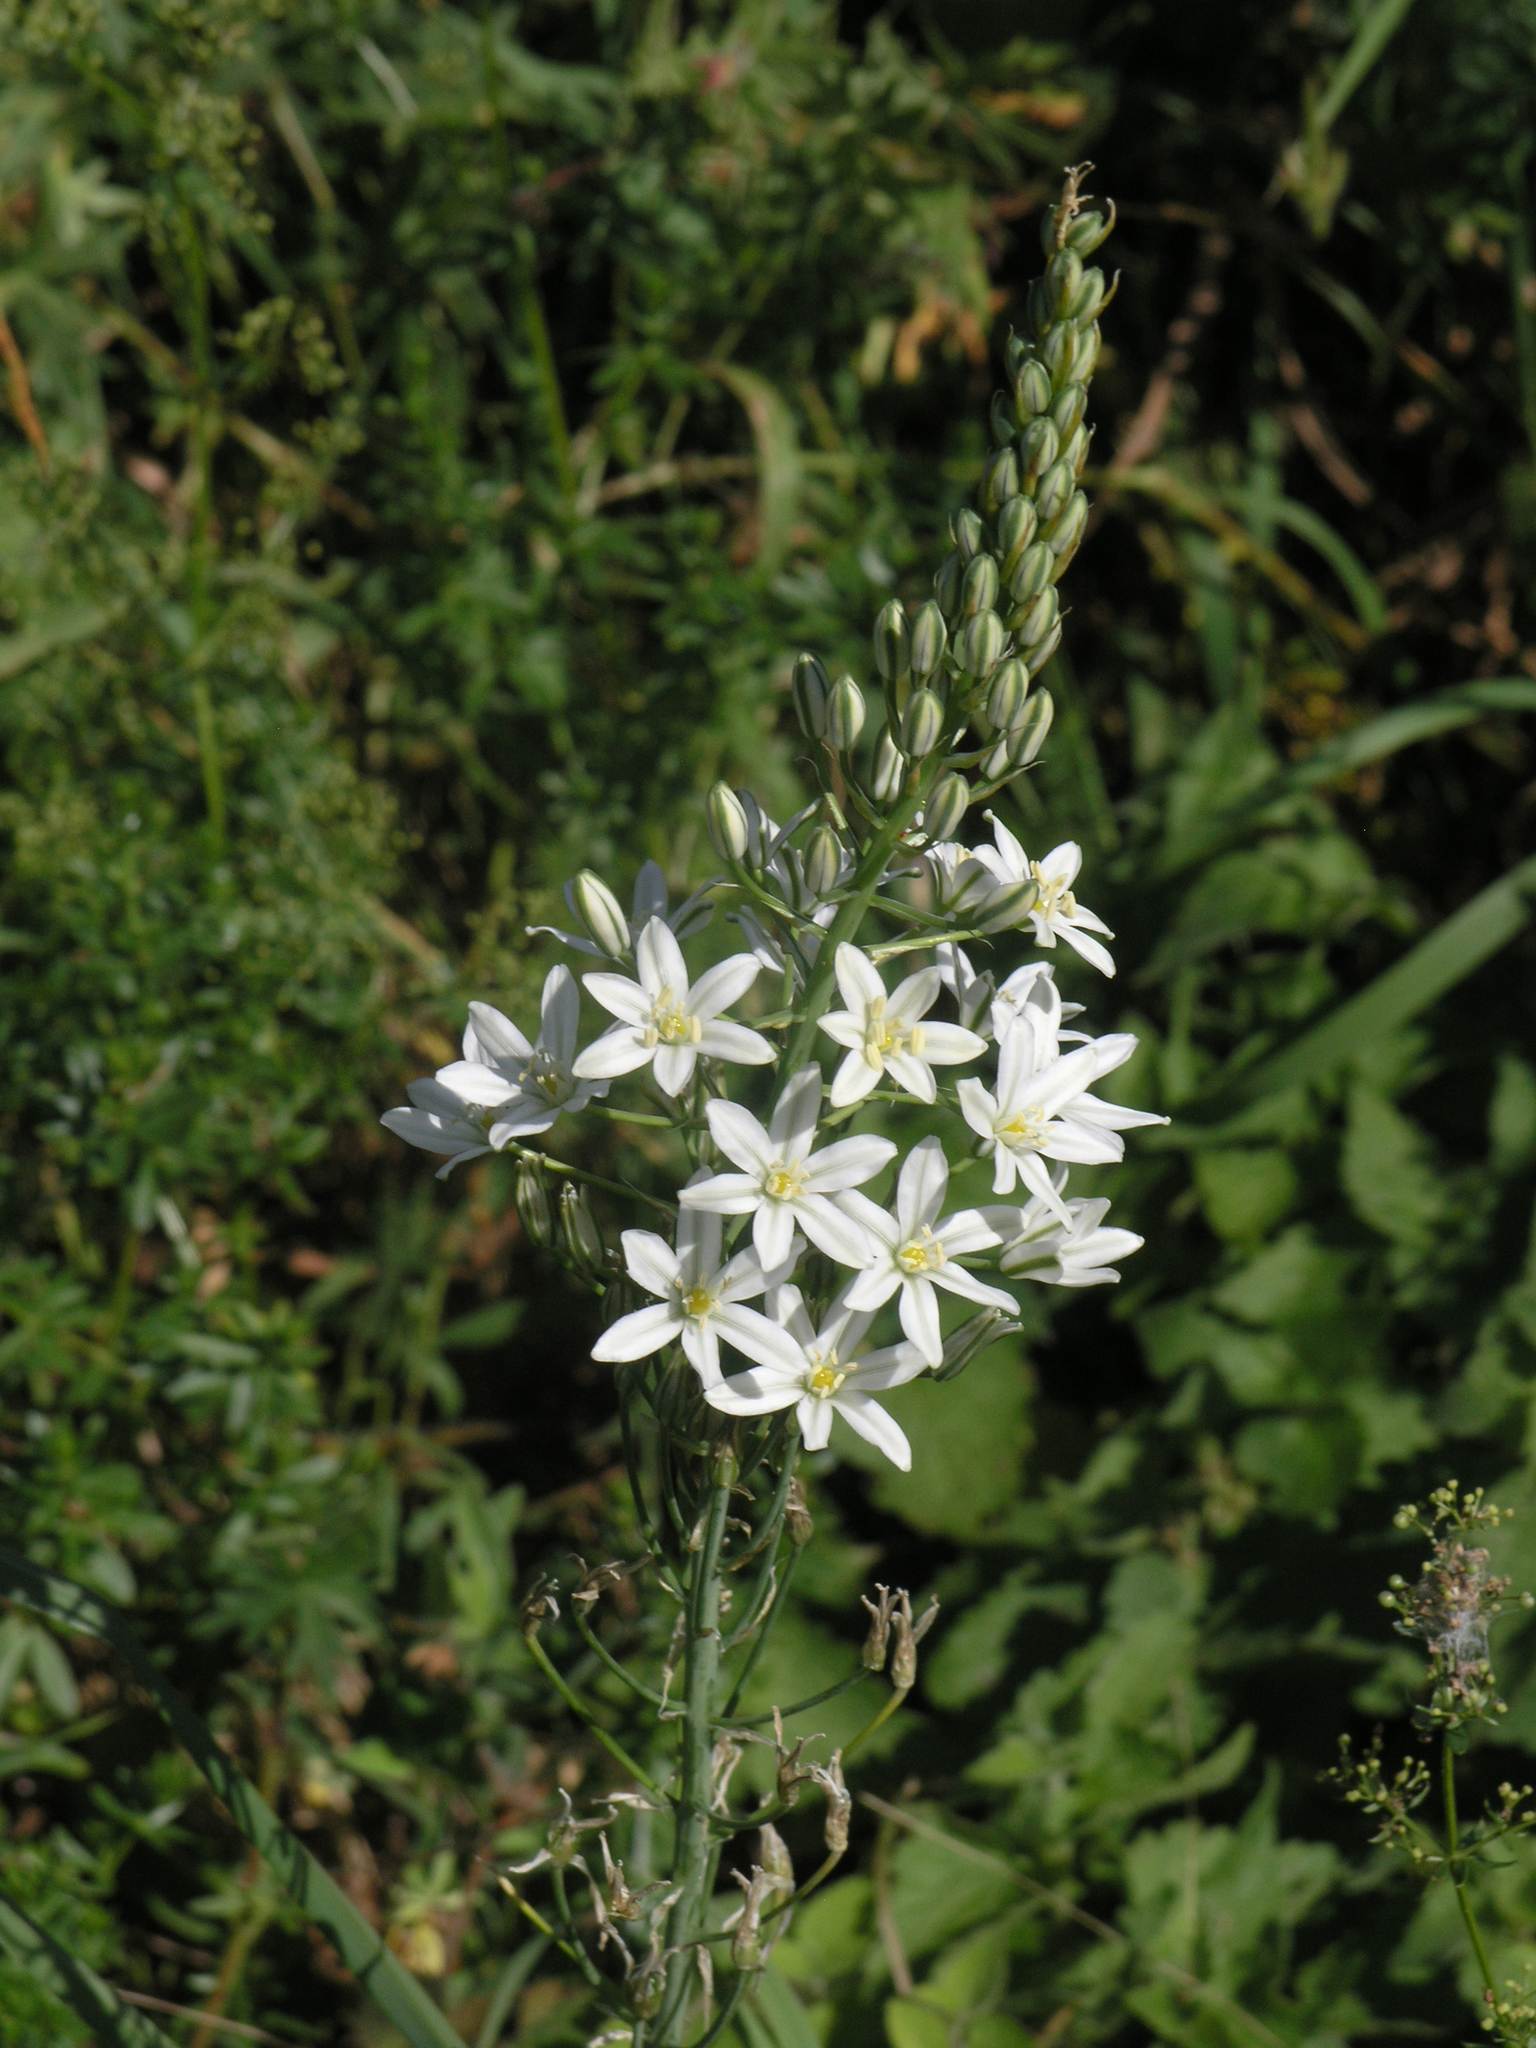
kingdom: Plantae
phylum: Tracheophyta
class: Liliopsida
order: Asparagales
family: Asparagaceae
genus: Ornithogalum
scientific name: Ornithogalum ponticum
